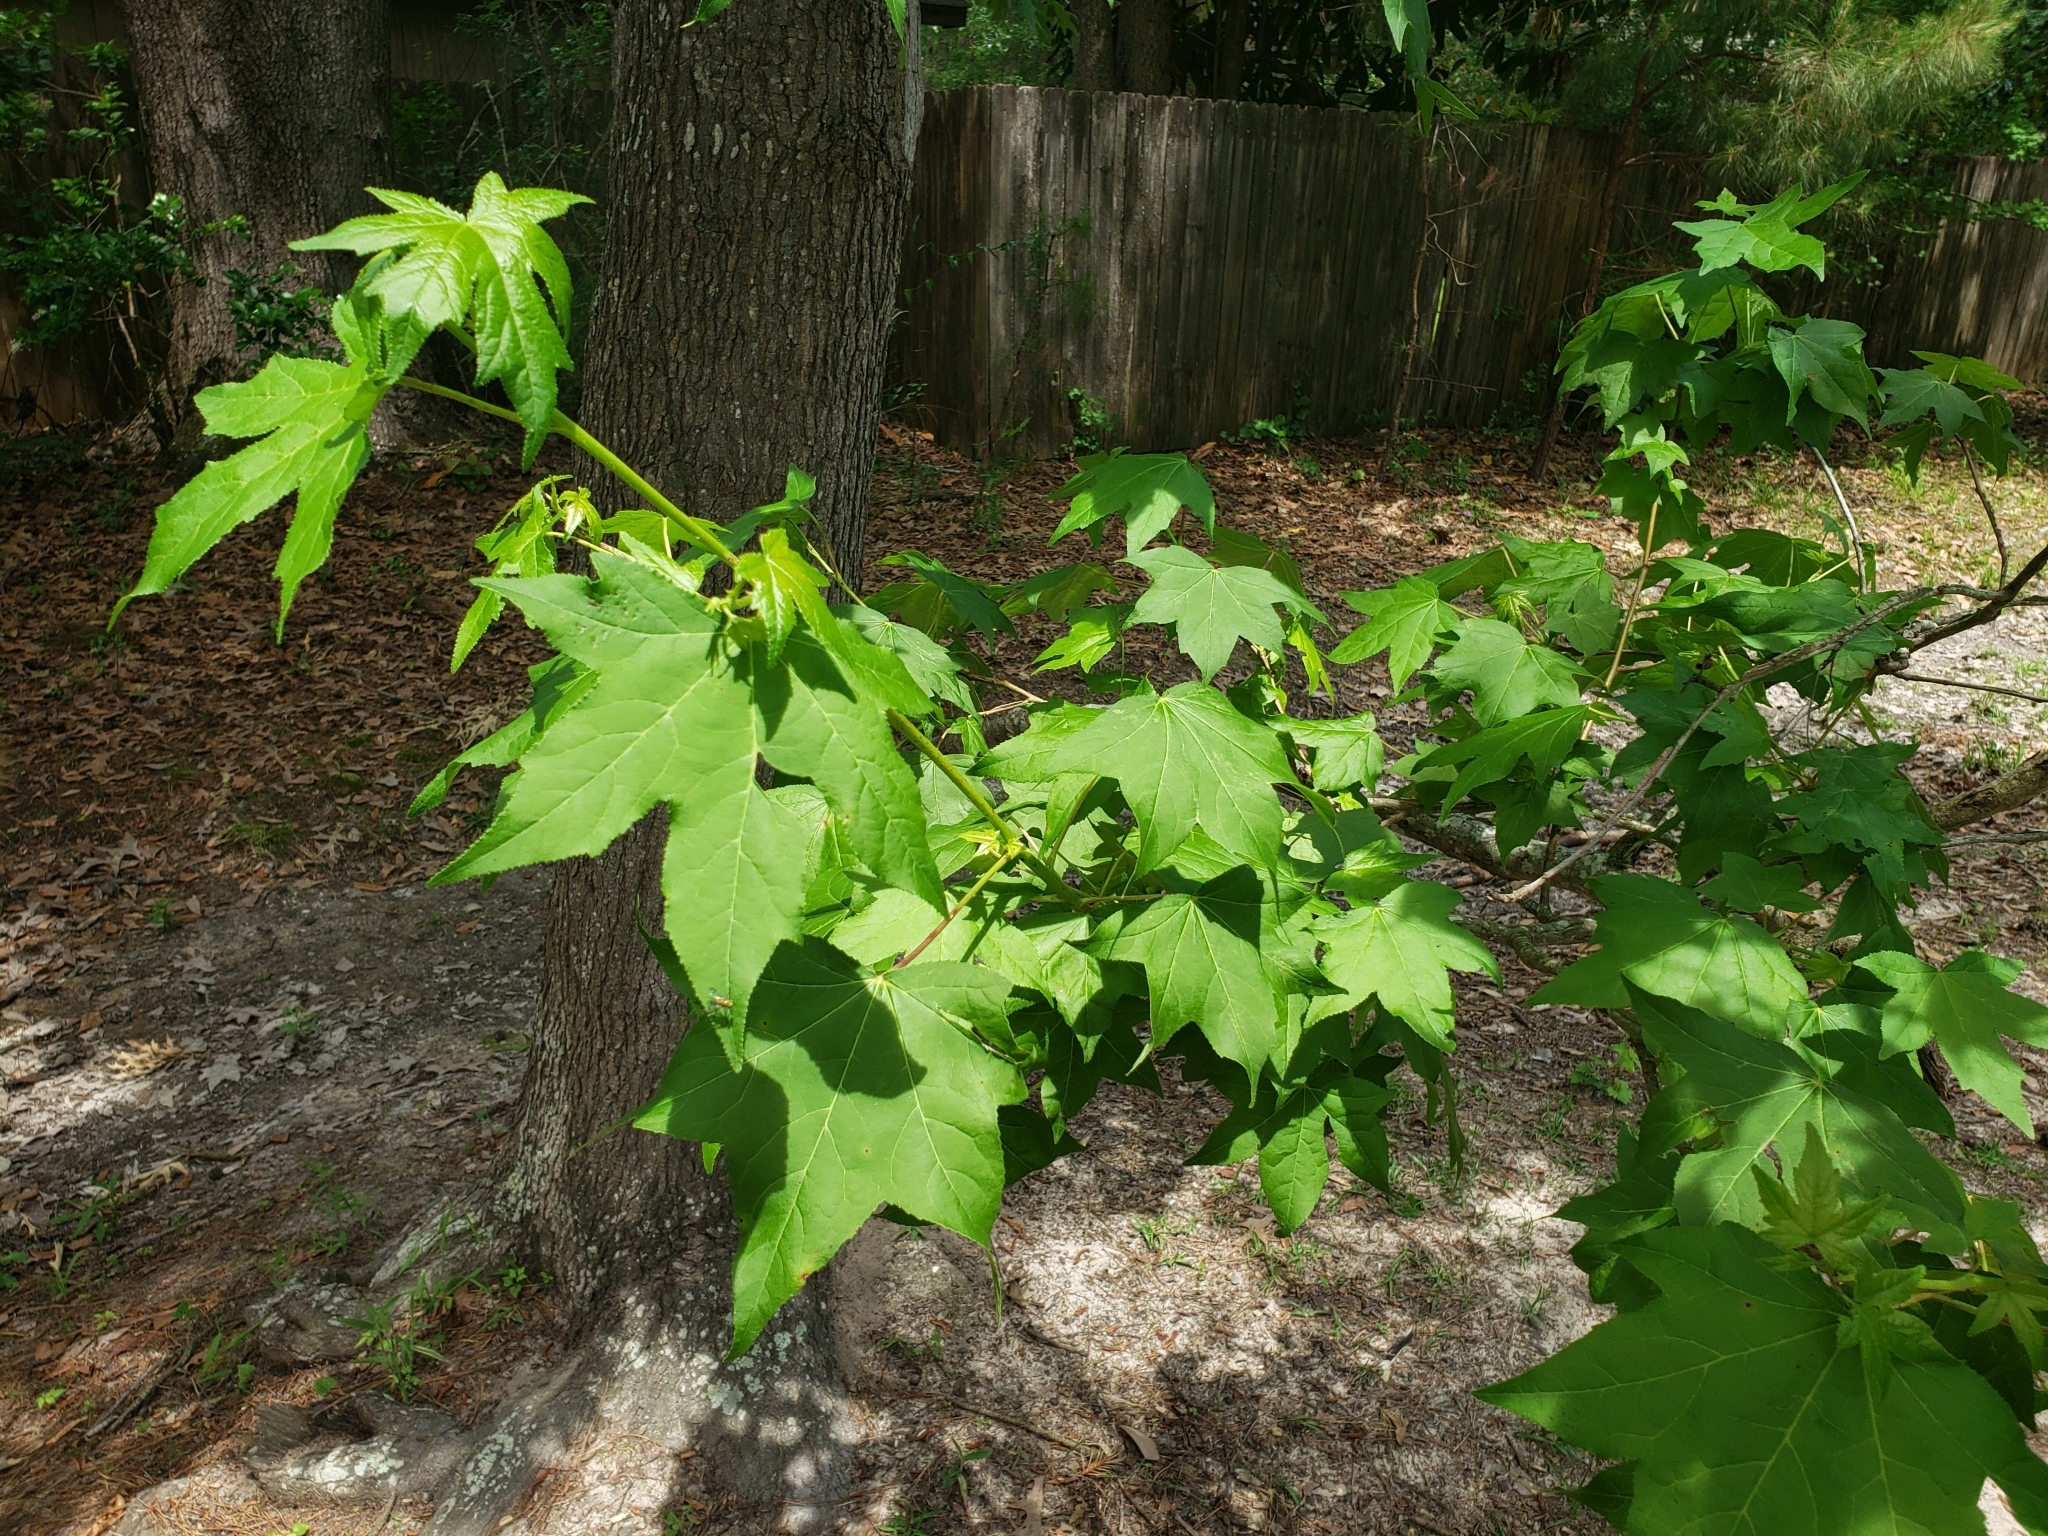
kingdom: Plantae
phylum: Tracheophyta
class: Magnoliopsida
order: Saxifragales
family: Altingiaceae
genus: Liquidambar
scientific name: Liquidambar styraciflua
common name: Sweet gum
